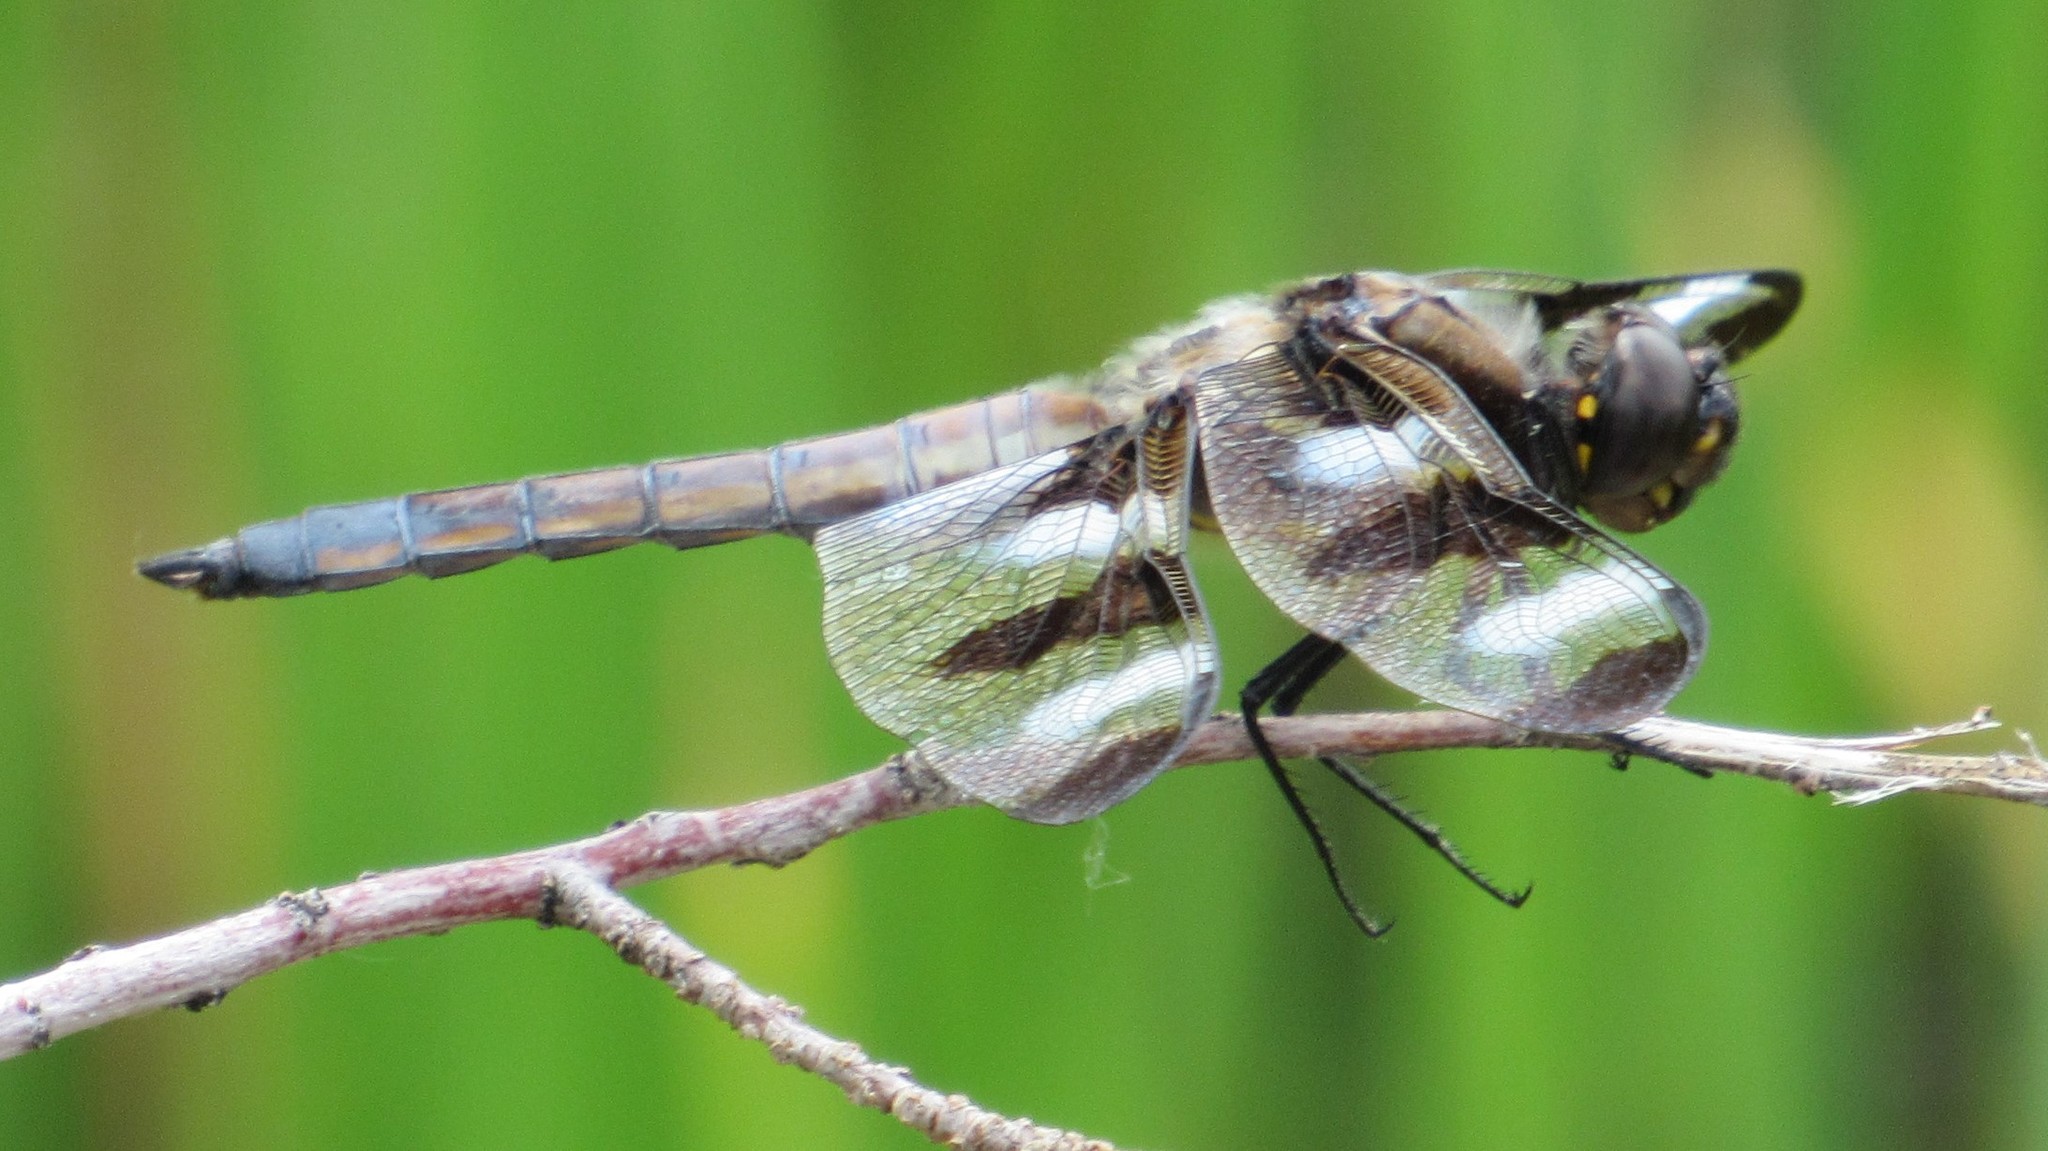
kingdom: Animalia
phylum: Arthropoda
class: Insecta
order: Odonata
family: Libellulidae
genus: Libellula
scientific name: Libellula pulchella
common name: Twelve-spotted skimmer
